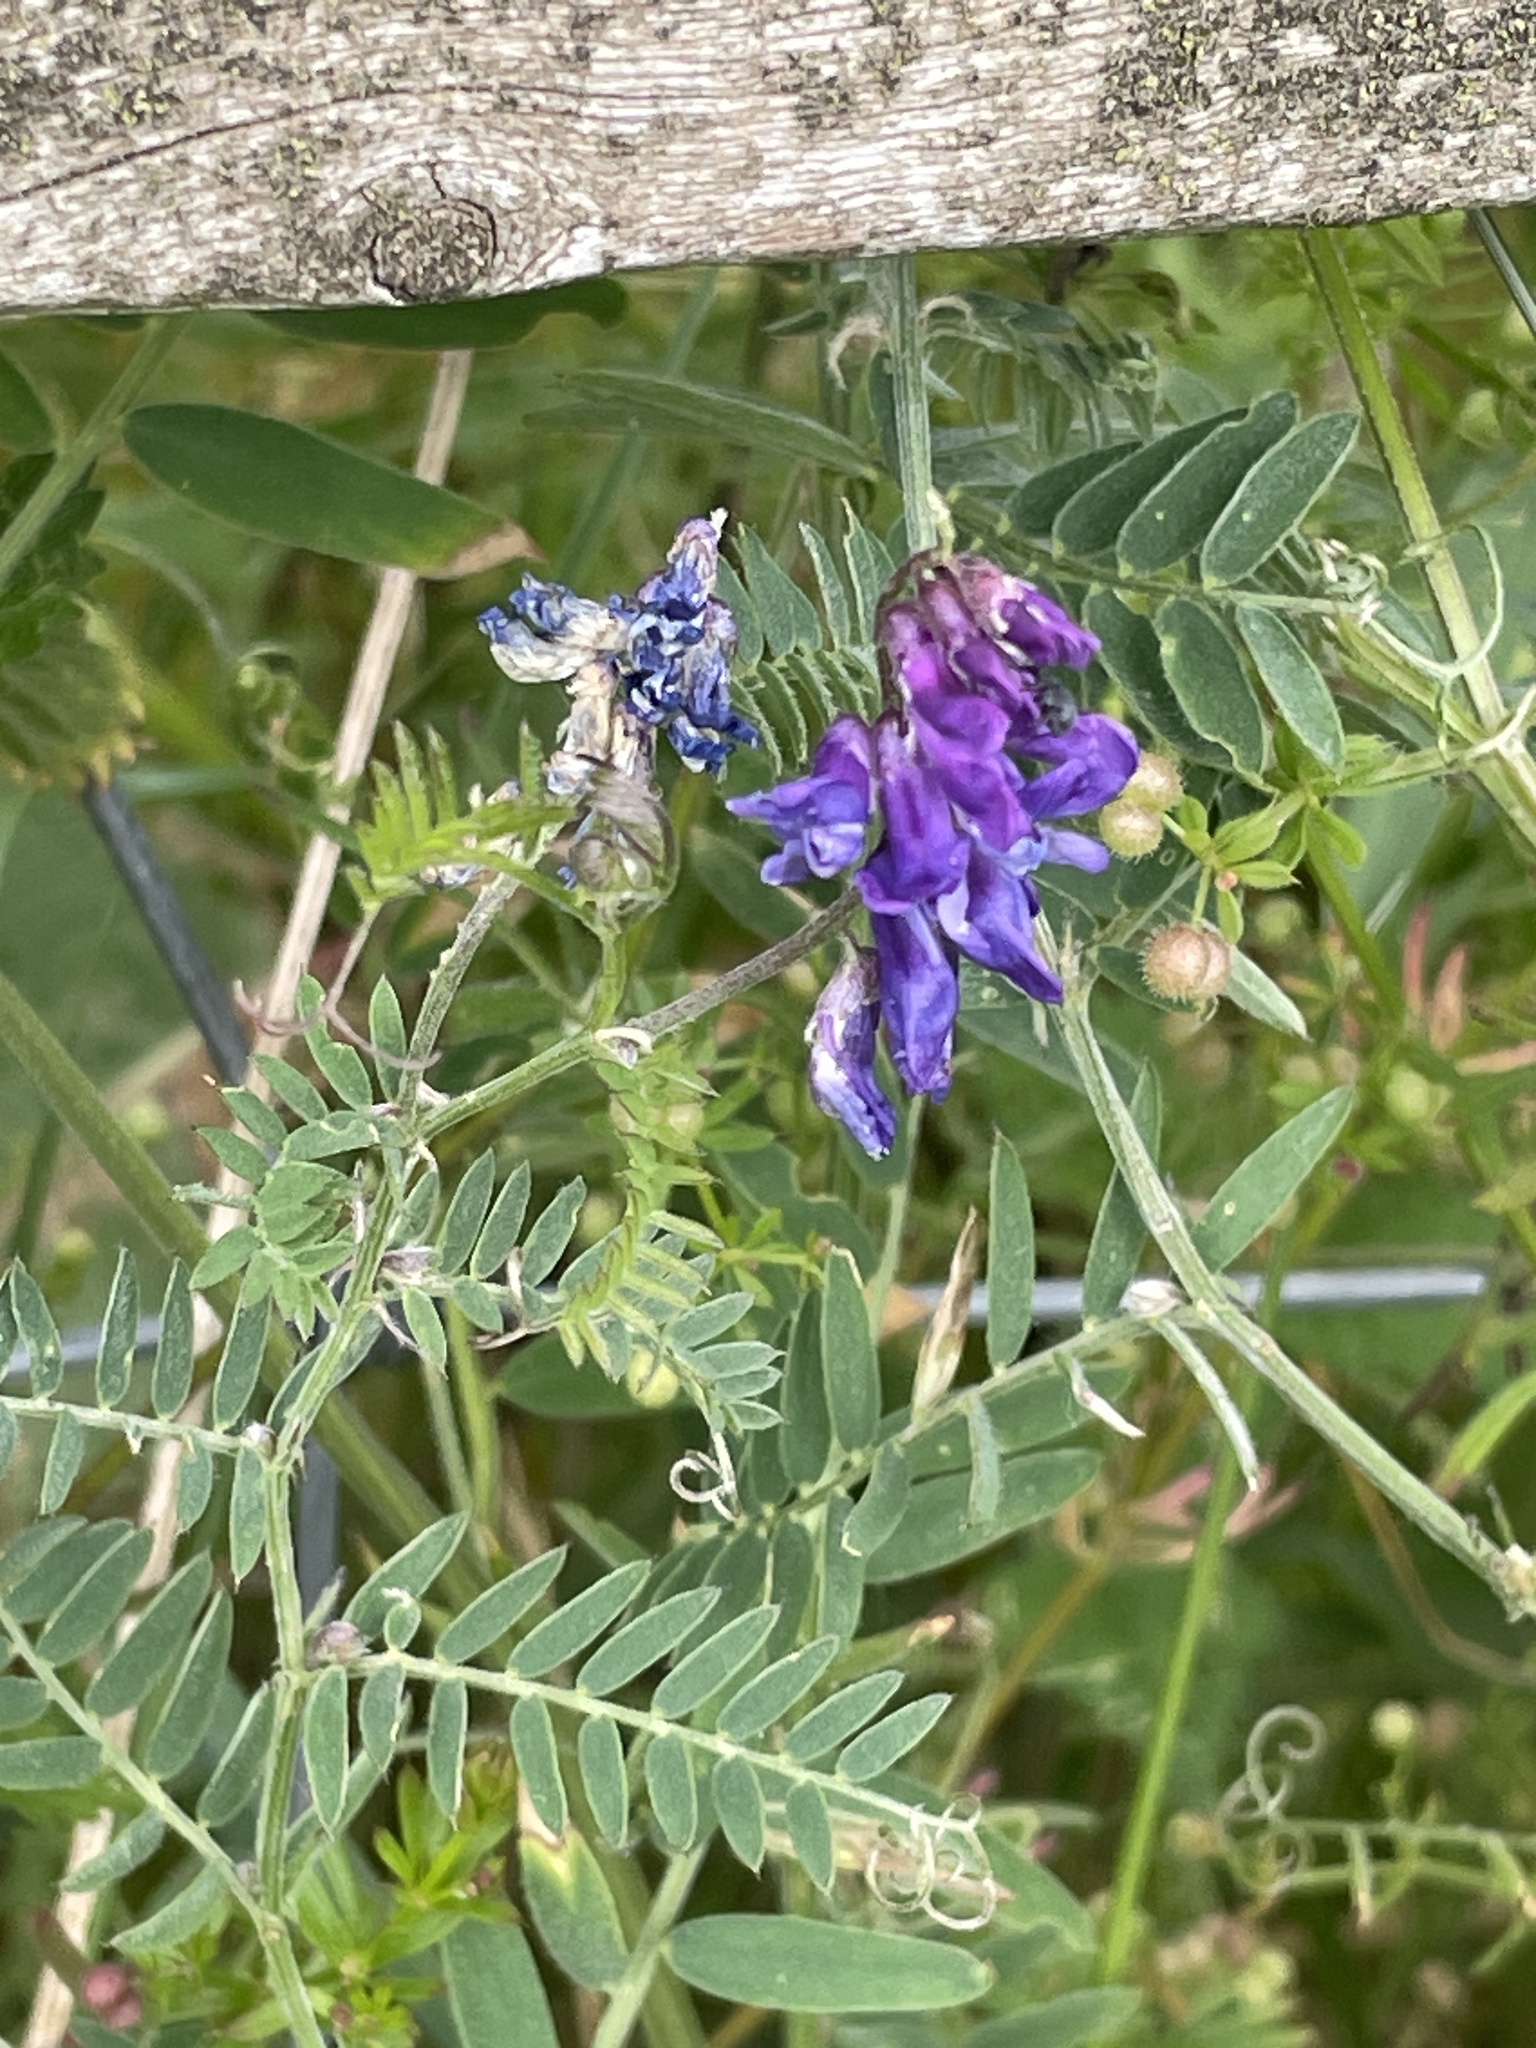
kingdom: Plantae
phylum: Tracheophyta
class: Magnoliopsida
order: Fabales
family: Fabaceae
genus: Vicia
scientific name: Vicia cracca
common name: Bird vetch
